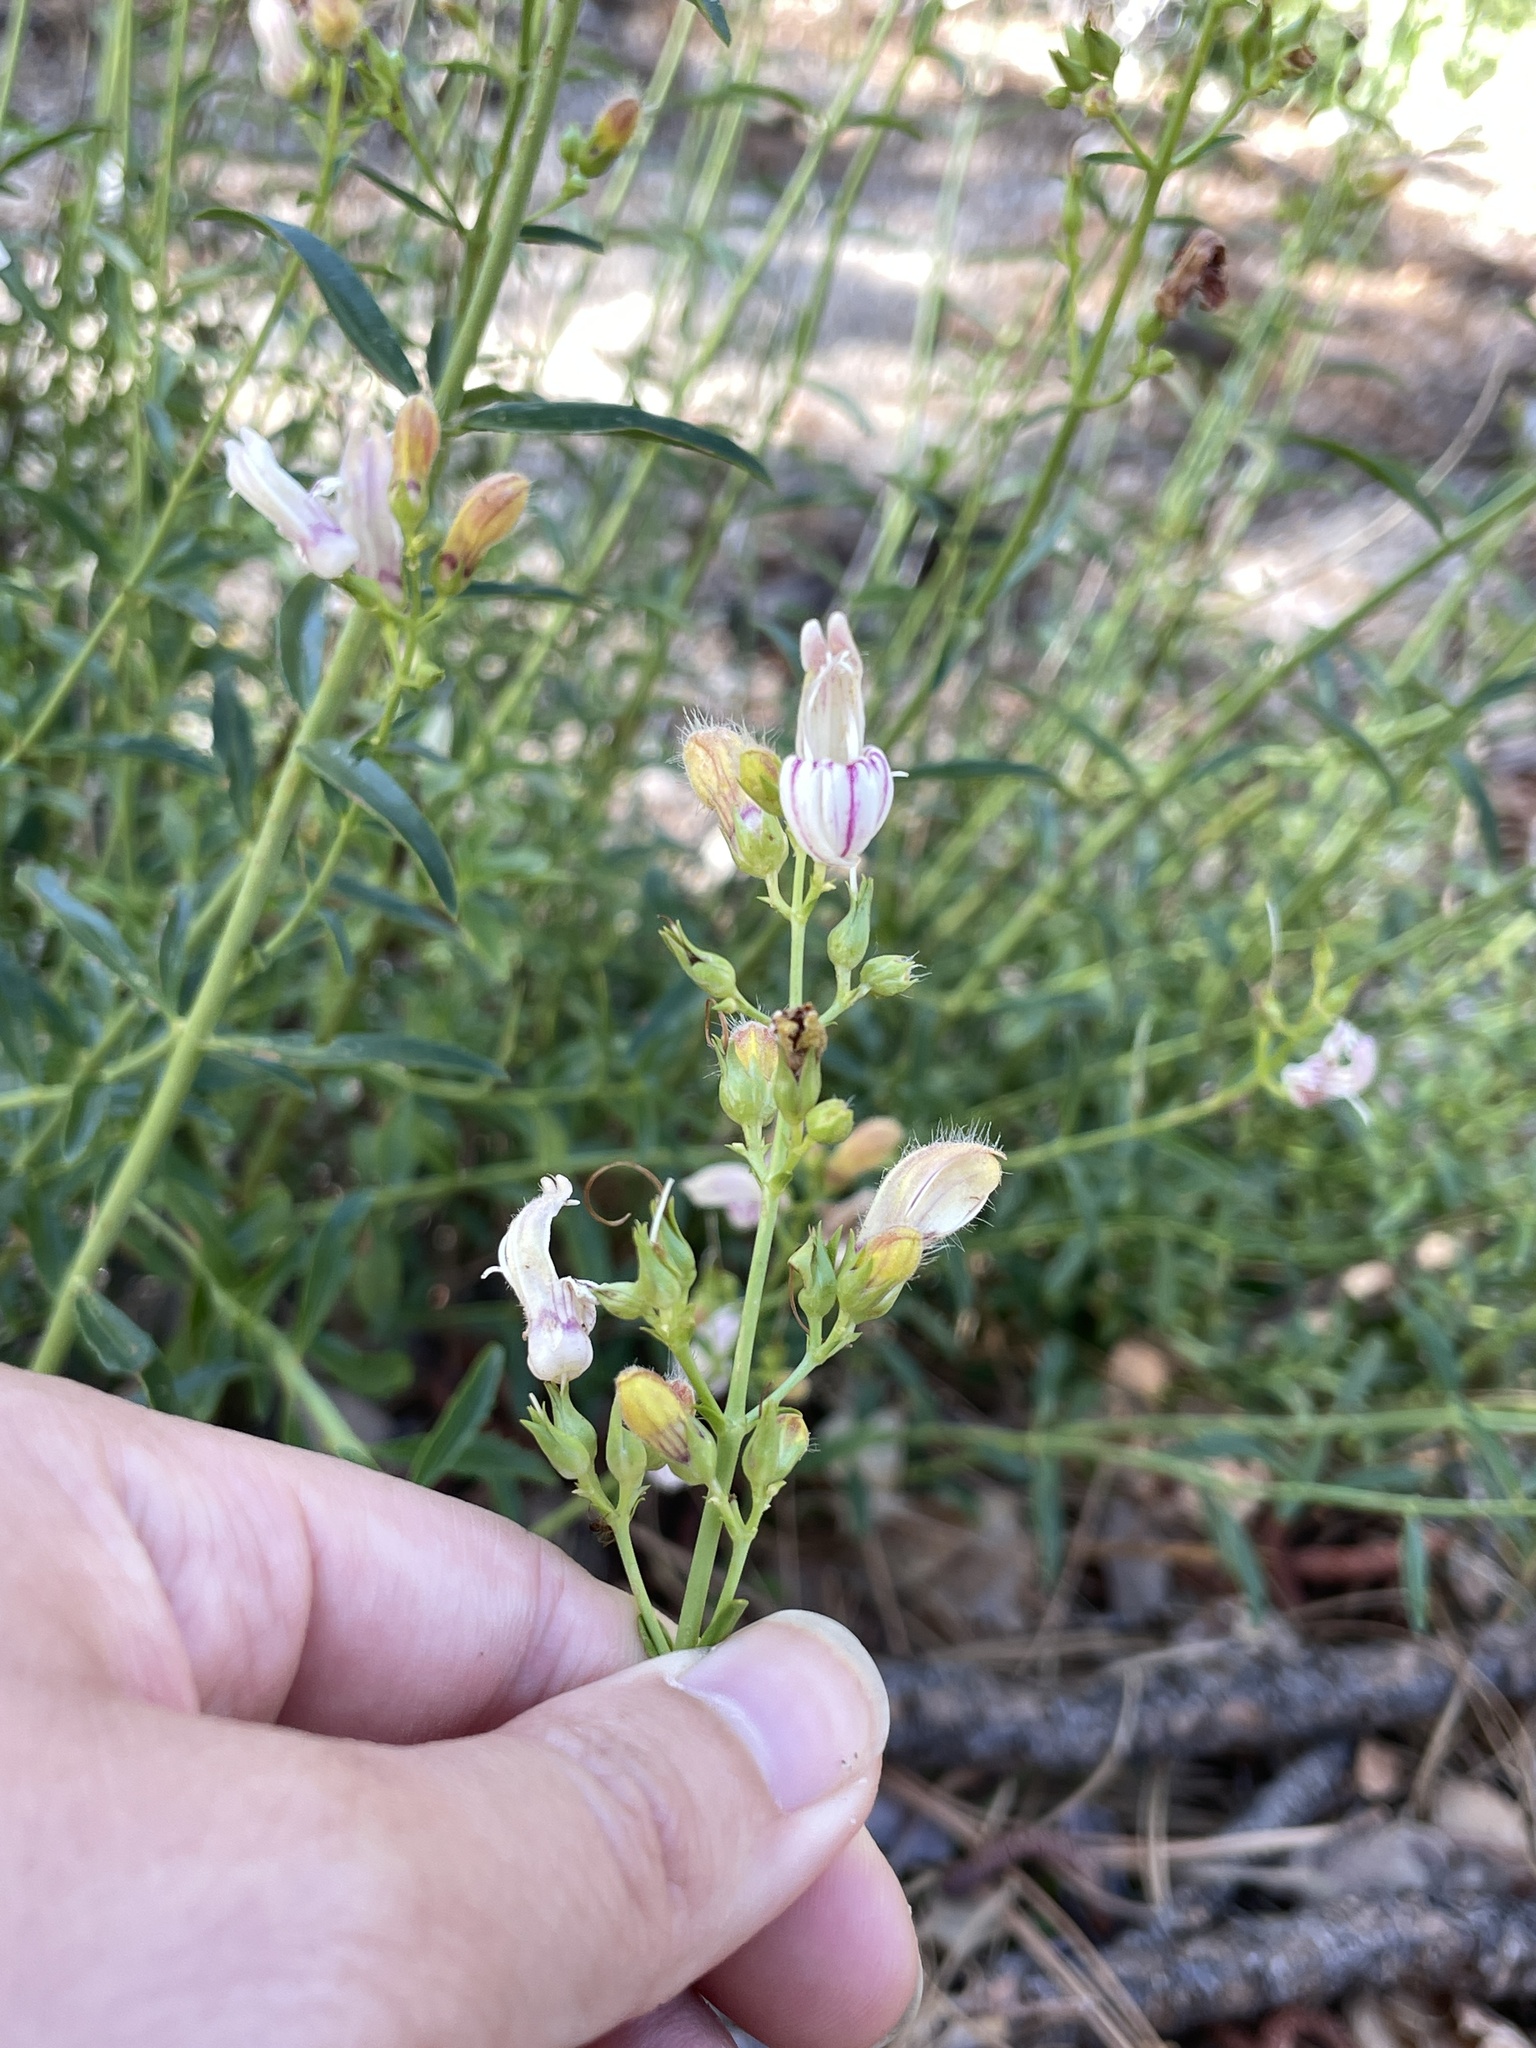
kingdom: Plantae
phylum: Tracheophyta
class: Magnoliopsida
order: Lamiales
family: Plantaginaceae
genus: Keckiella
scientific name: Keckiella breviflora
